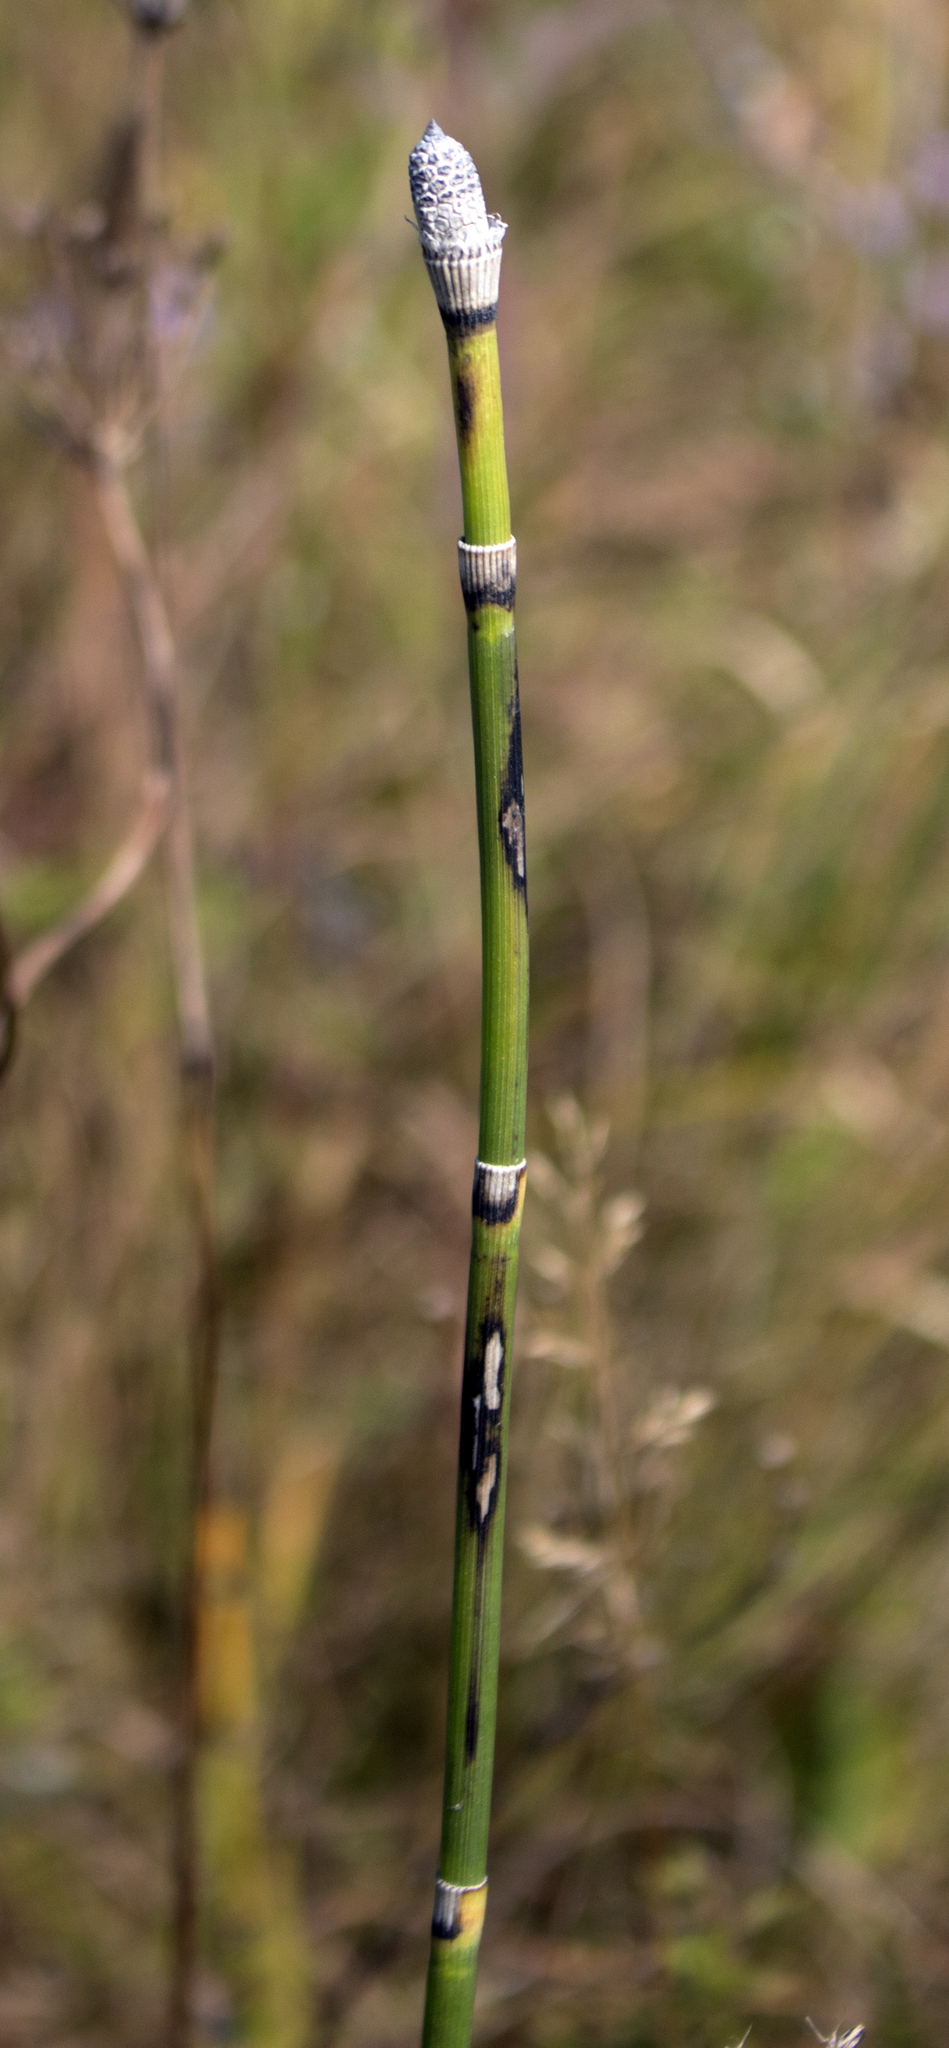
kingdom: Plantae
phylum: Tracheophyta
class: Polypodiopsida
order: Equisetales
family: Equisetaceae
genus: Equisetum
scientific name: Equisetum hyemale
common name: Rough horsetail
